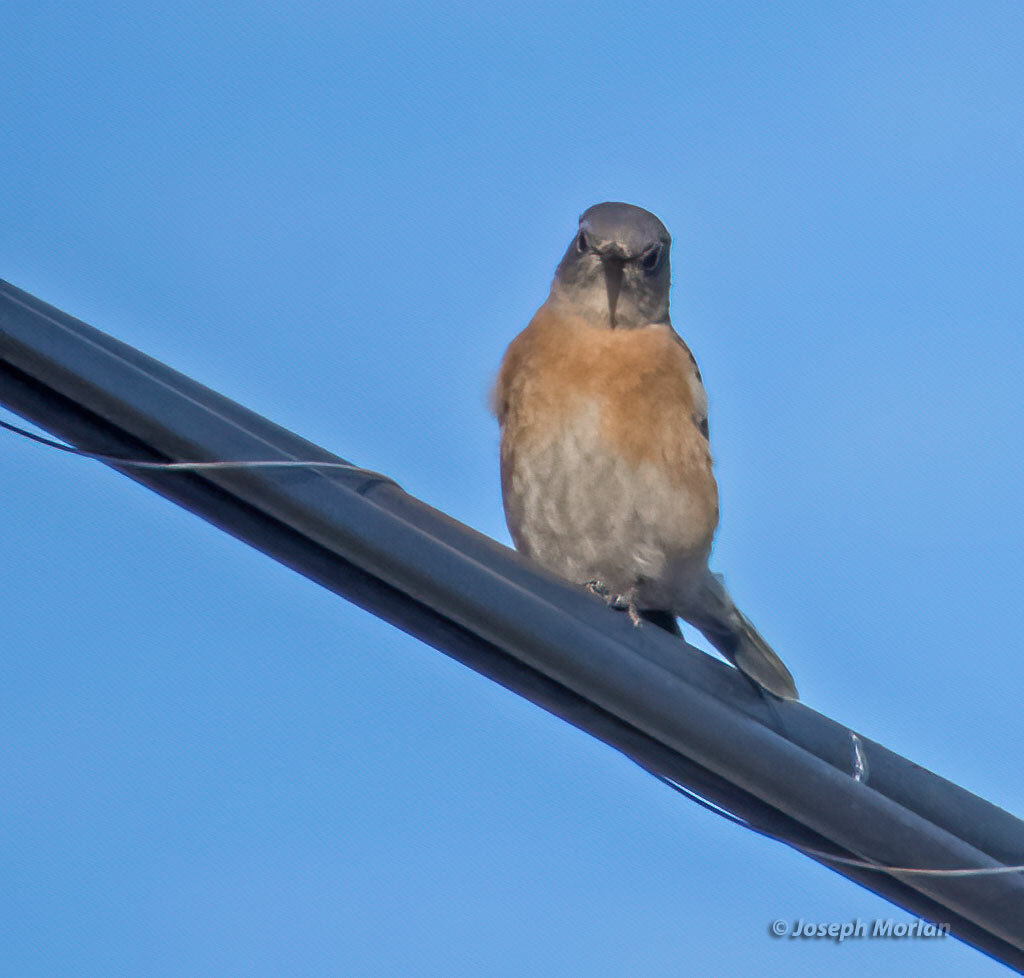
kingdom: Animalia
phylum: Chordata
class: Aves
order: Passeriformes
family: Turdidae
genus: Sialia
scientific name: Sialia mexicana
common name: Western bluebird
